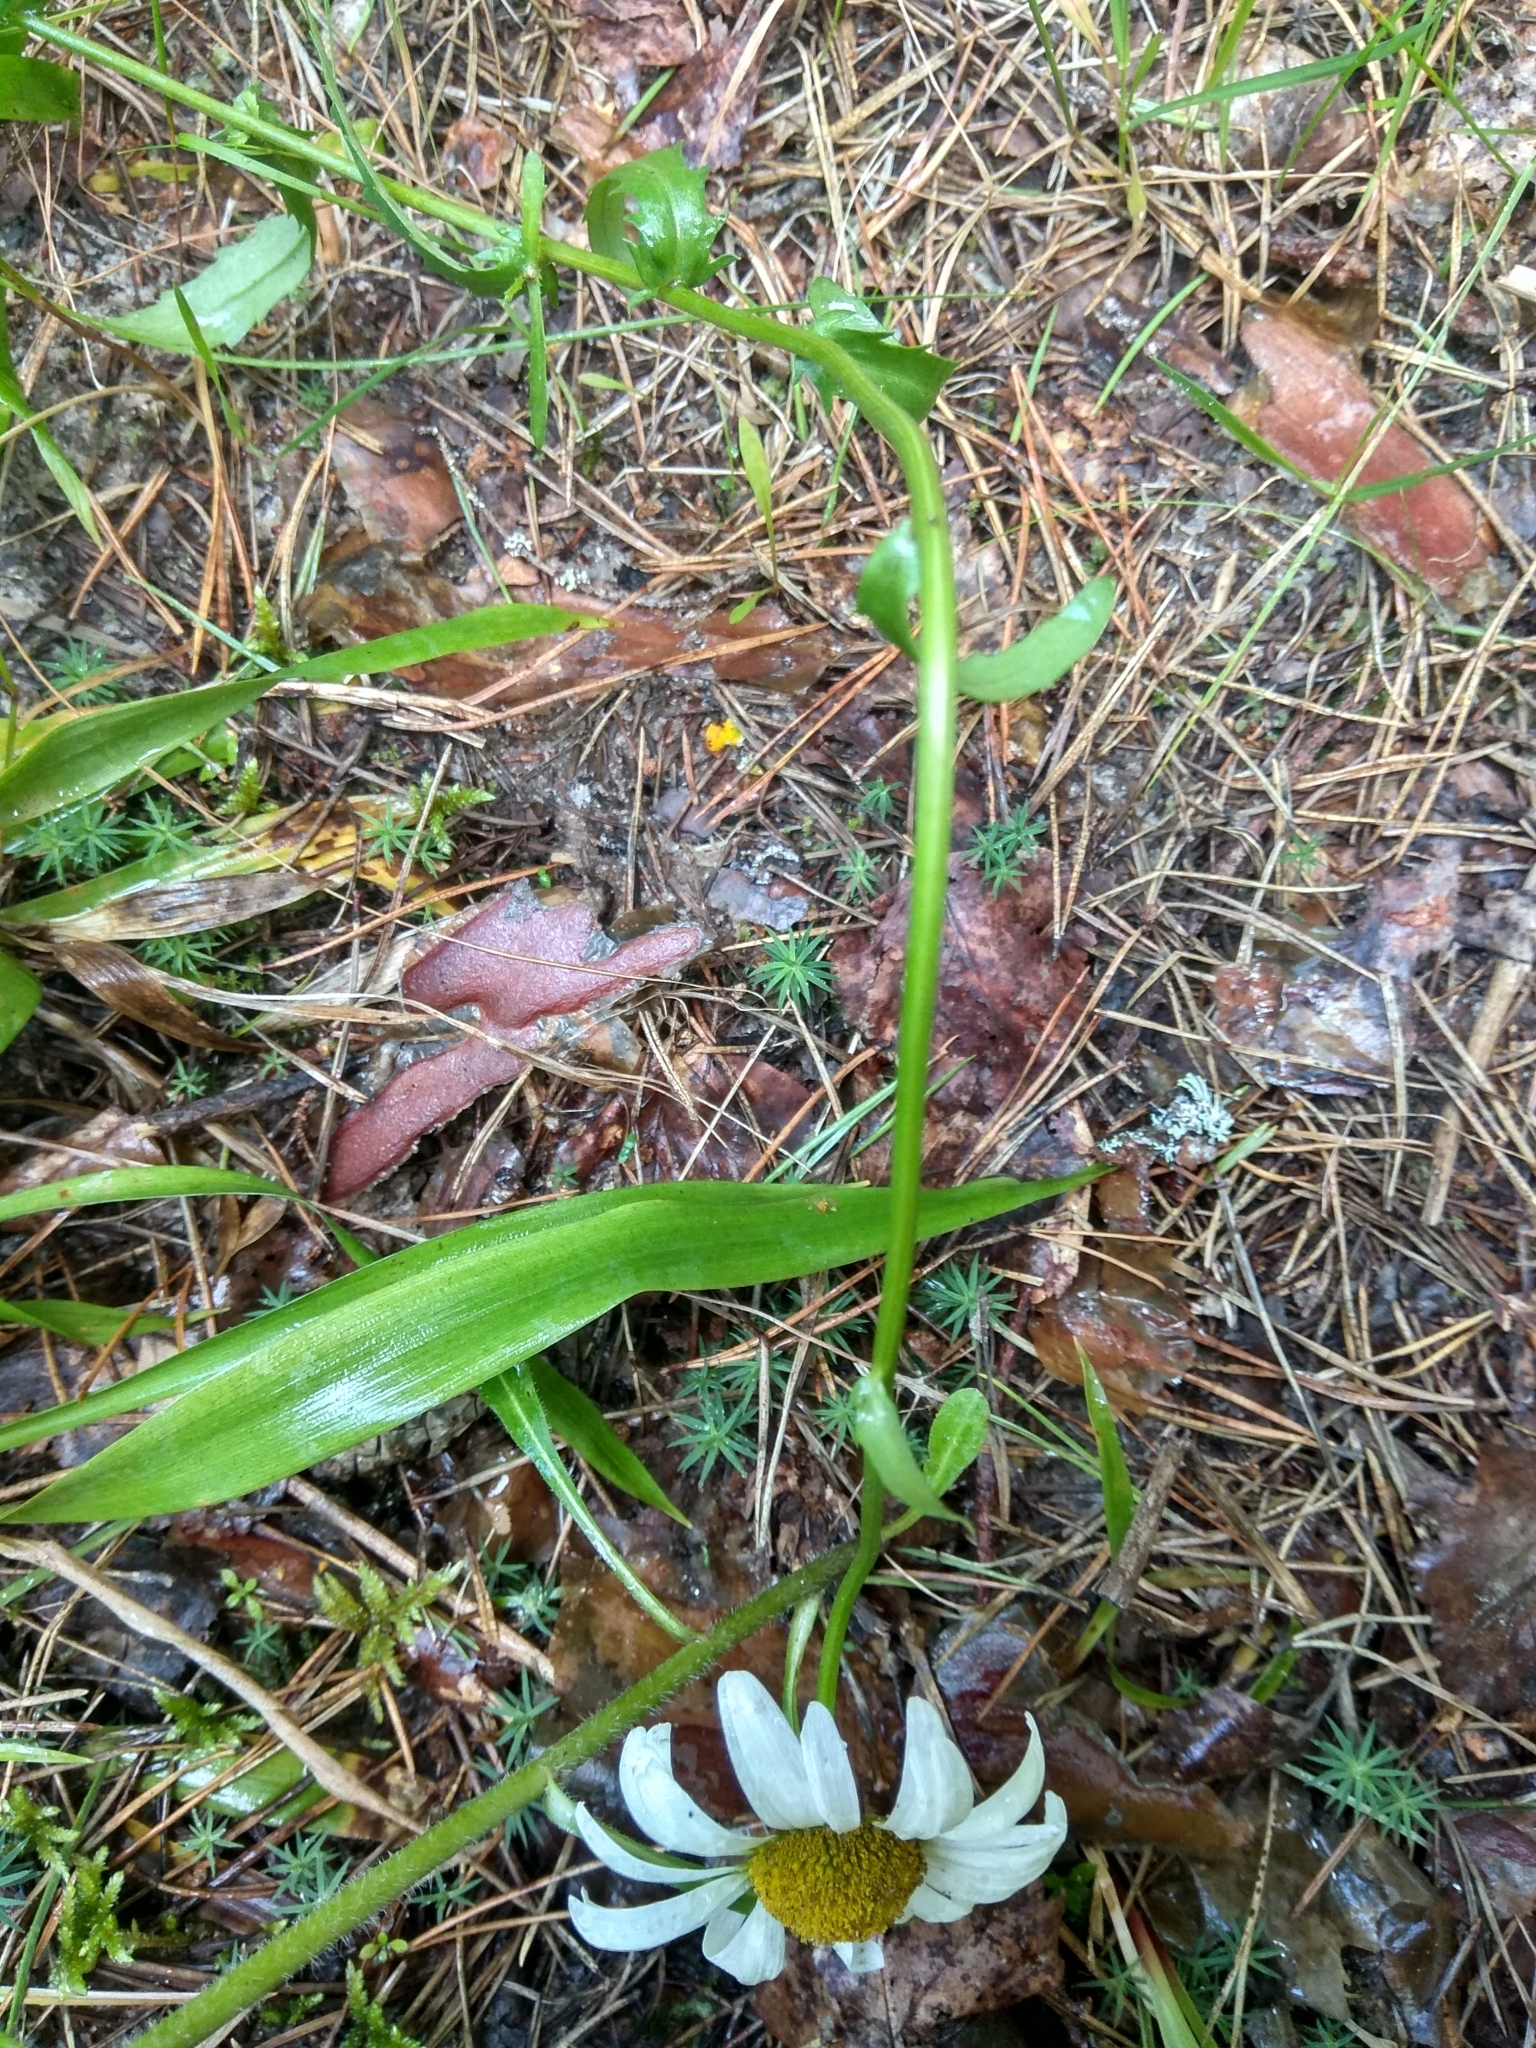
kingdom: Plantae
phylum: Tracheophyta
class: Magnoliopsida
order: Asterales
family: Asteraceae
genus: Leucanthemum
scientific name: Leucanthemum vulgare
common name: Oxeye daisy
